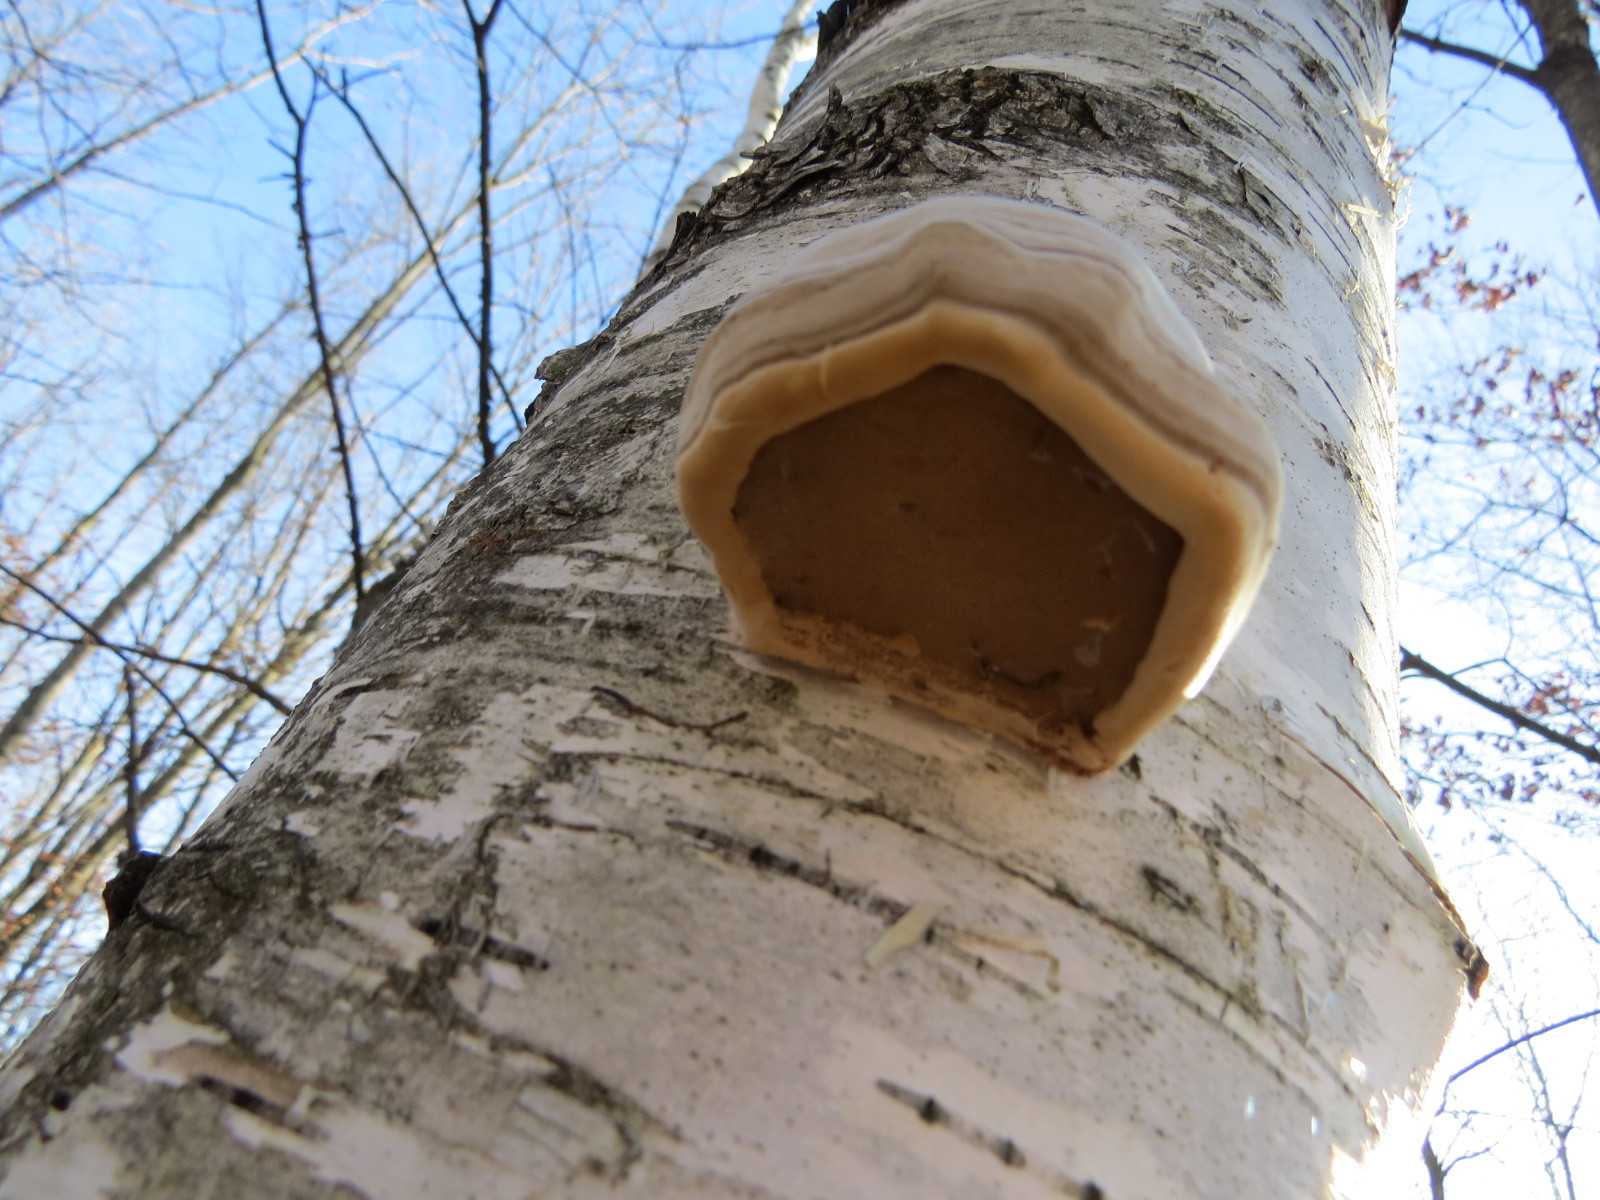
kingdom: Fungi
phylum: Basidiomycota
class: Agaricomycetes
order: Polyporales
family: Polyporaceae
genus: Fomes
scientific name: Fomes fomentarius
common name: Hoof fungus
